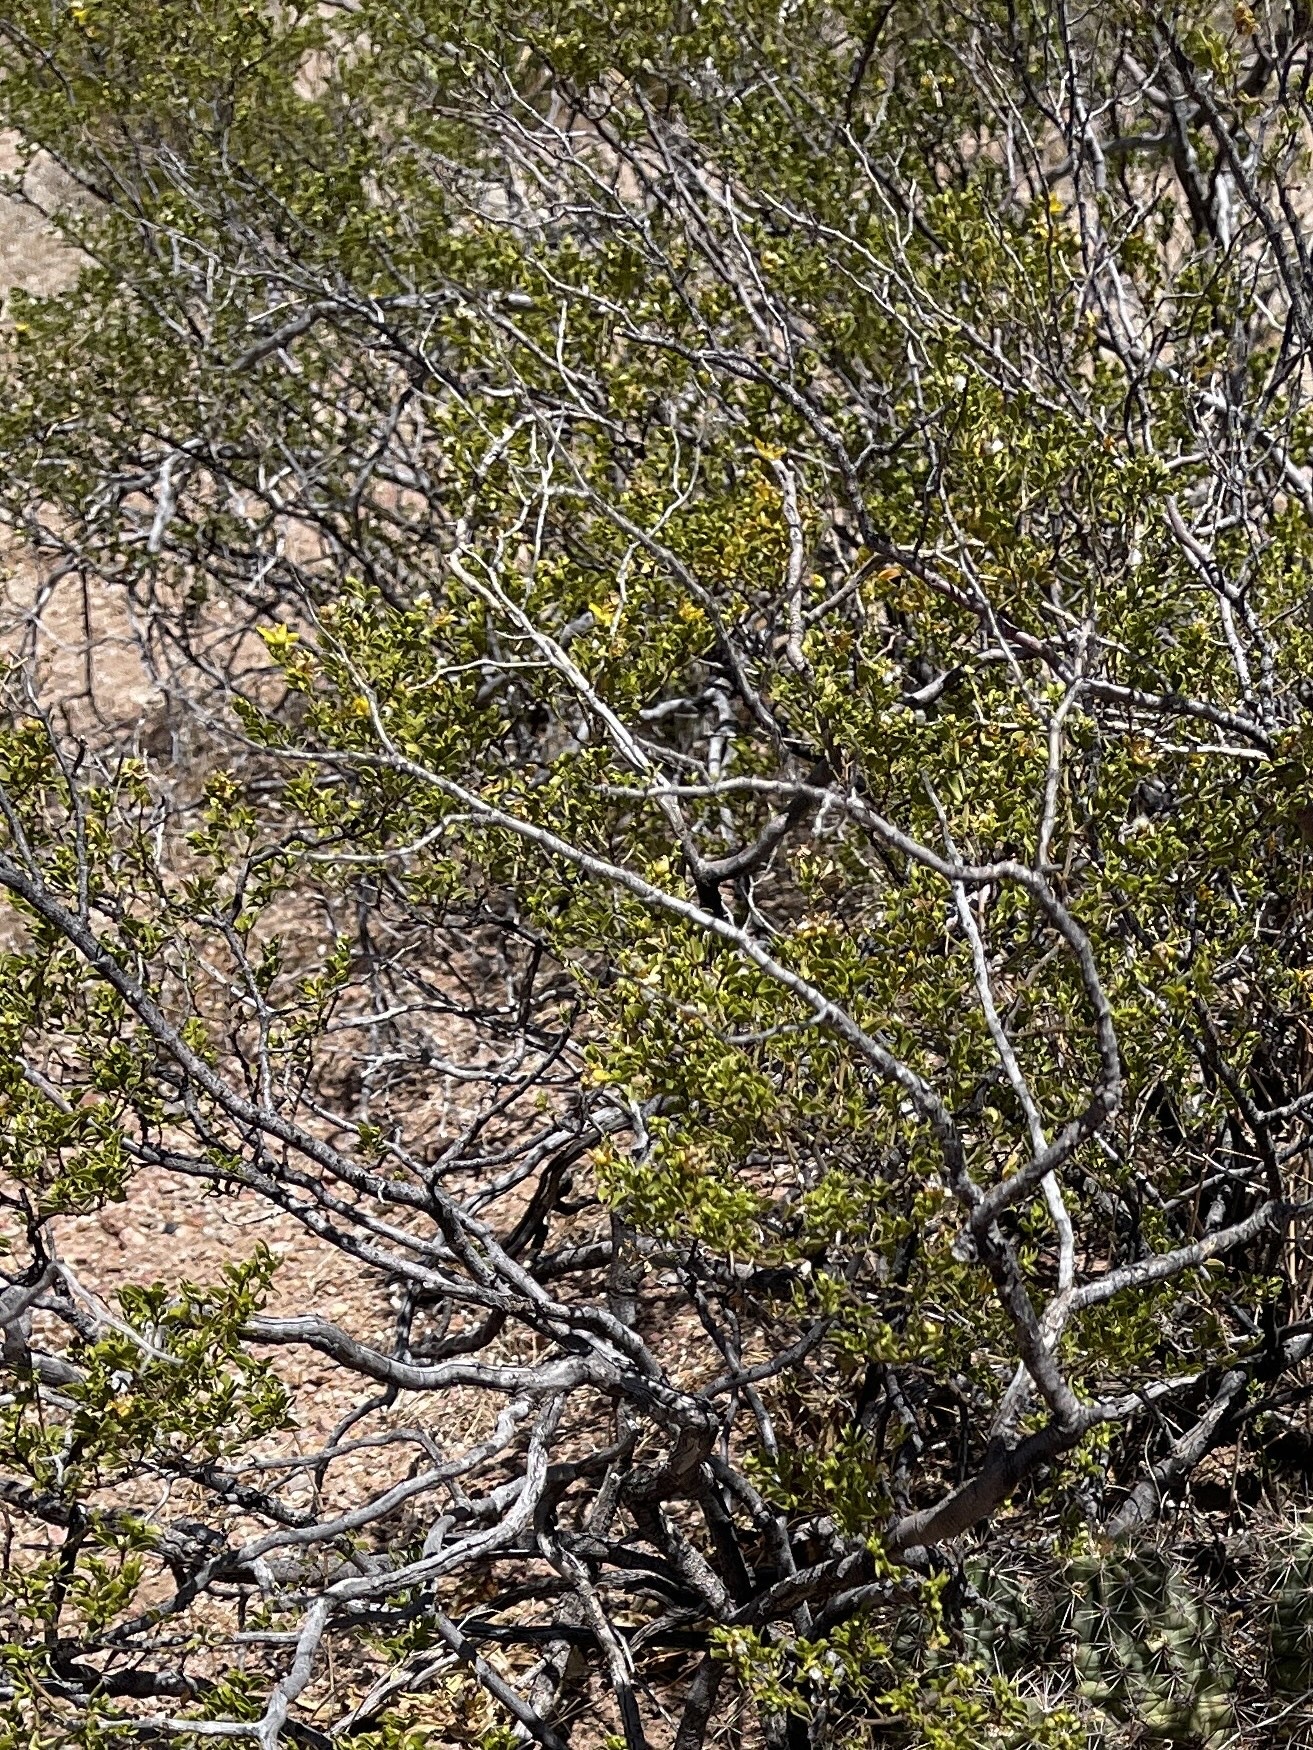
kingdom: Plantae
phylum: Tracheophyta
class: Magnoliopsida
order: Zygophyllales
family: Zygophyllaceae
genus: Larrea
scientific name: Larrea tridentata
